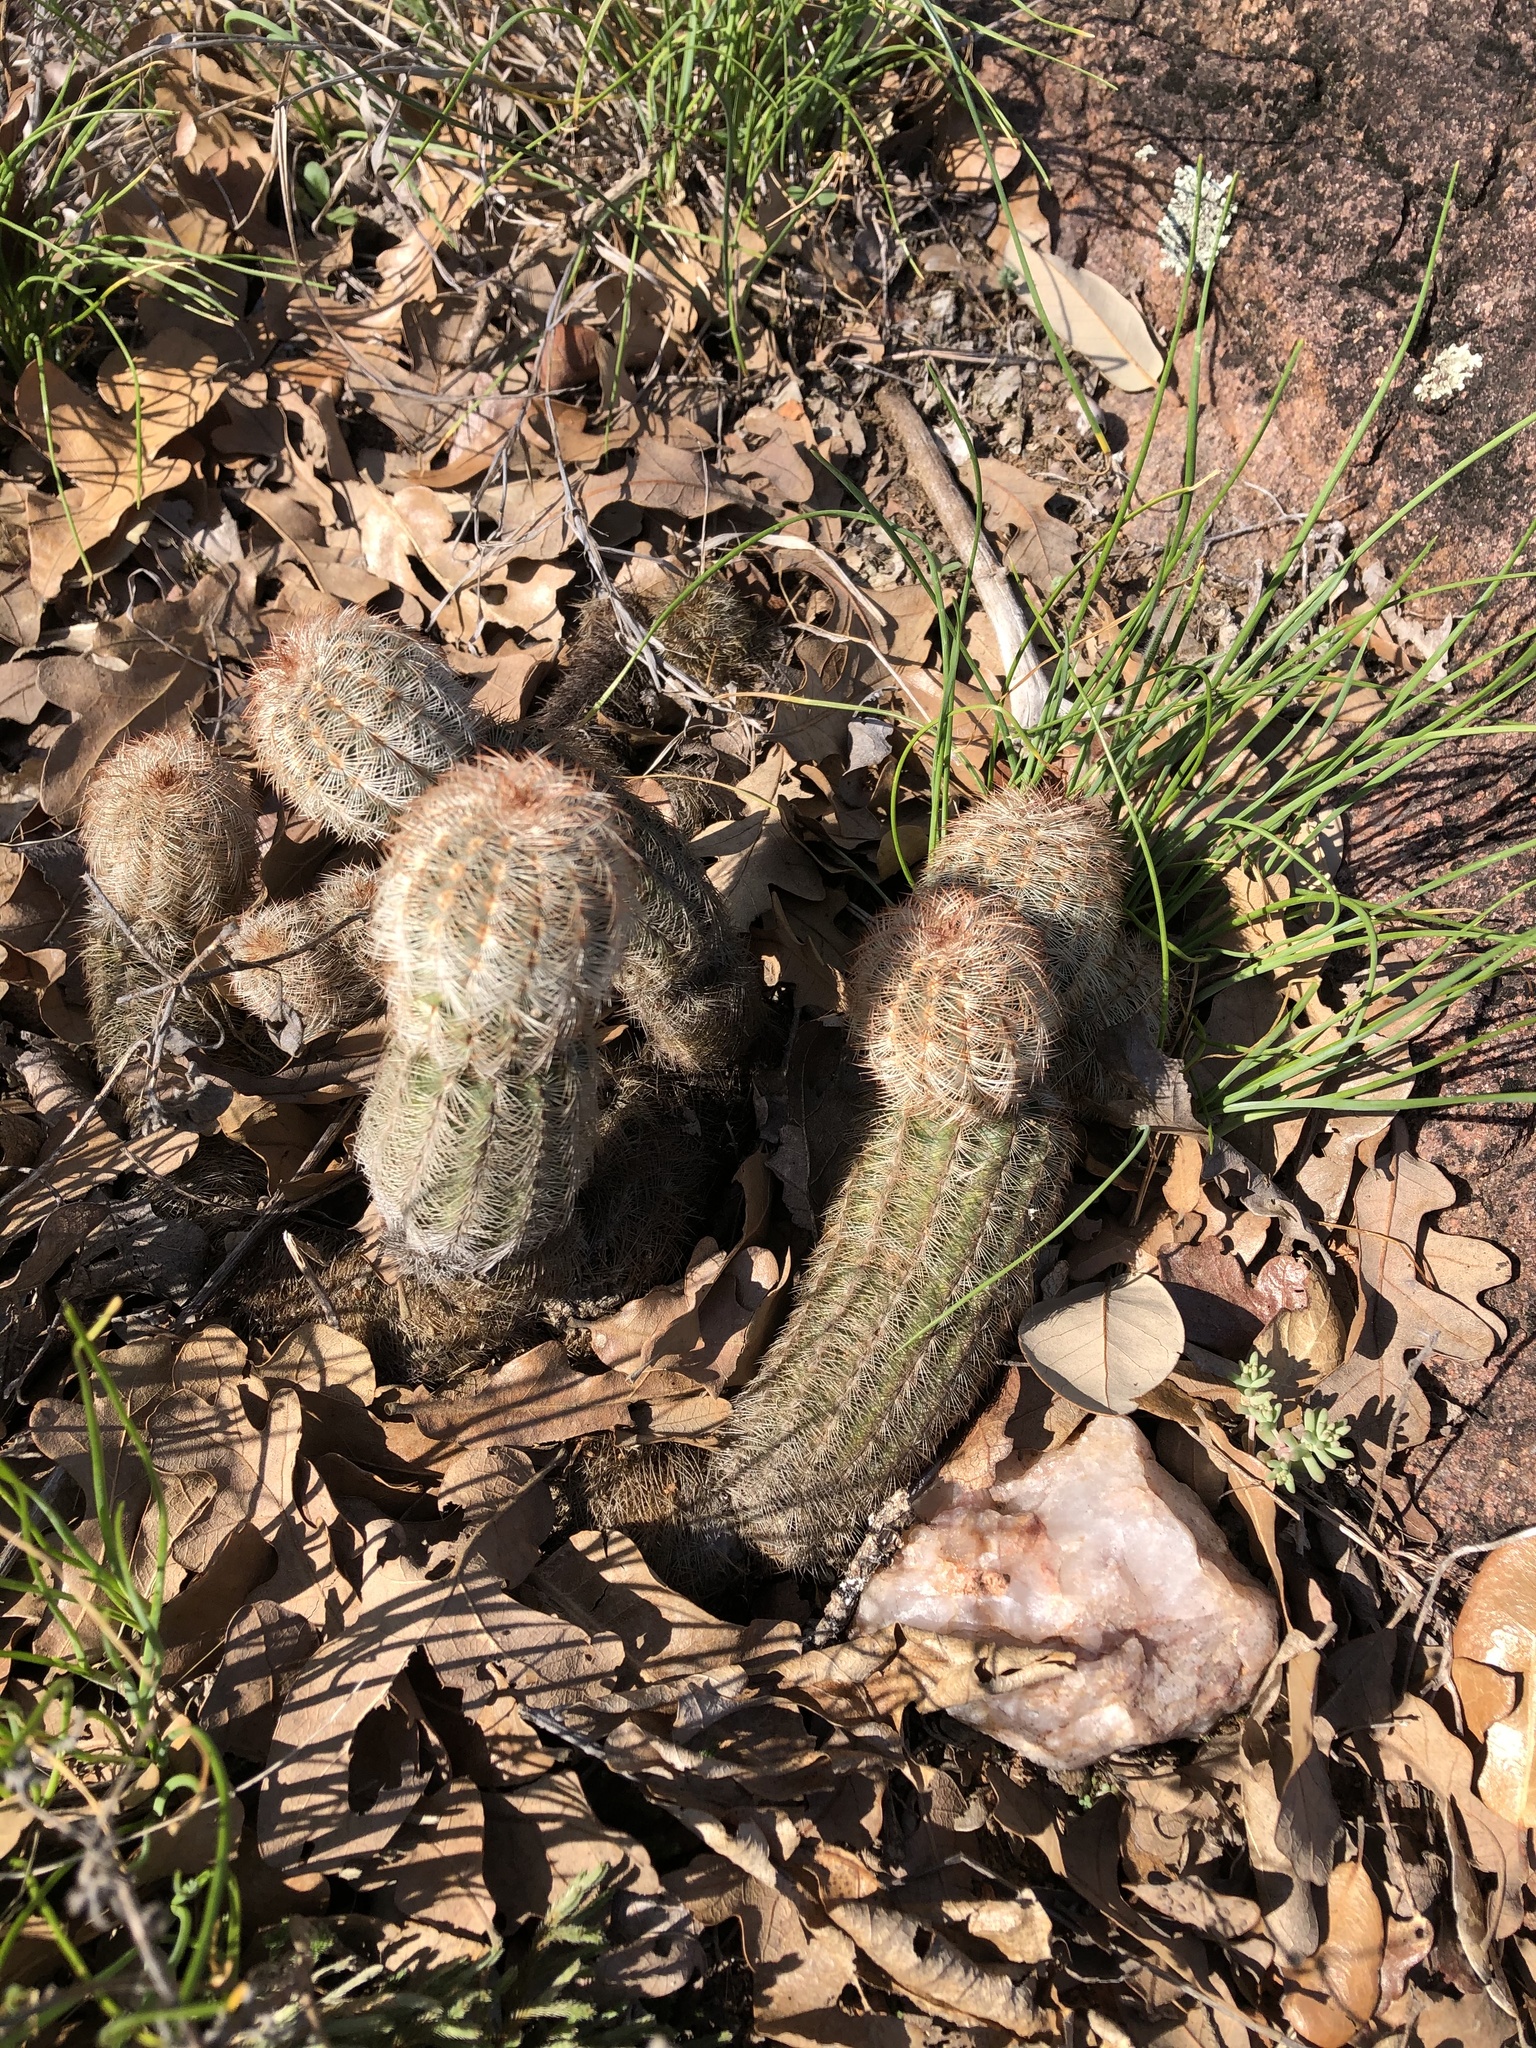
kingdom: Plantae
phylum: Tracheophyta
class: Magnoliopsida
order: Caryophyllales
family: Cactaceae
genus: Echinocereus
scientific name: Echinocereus reichenbachii
